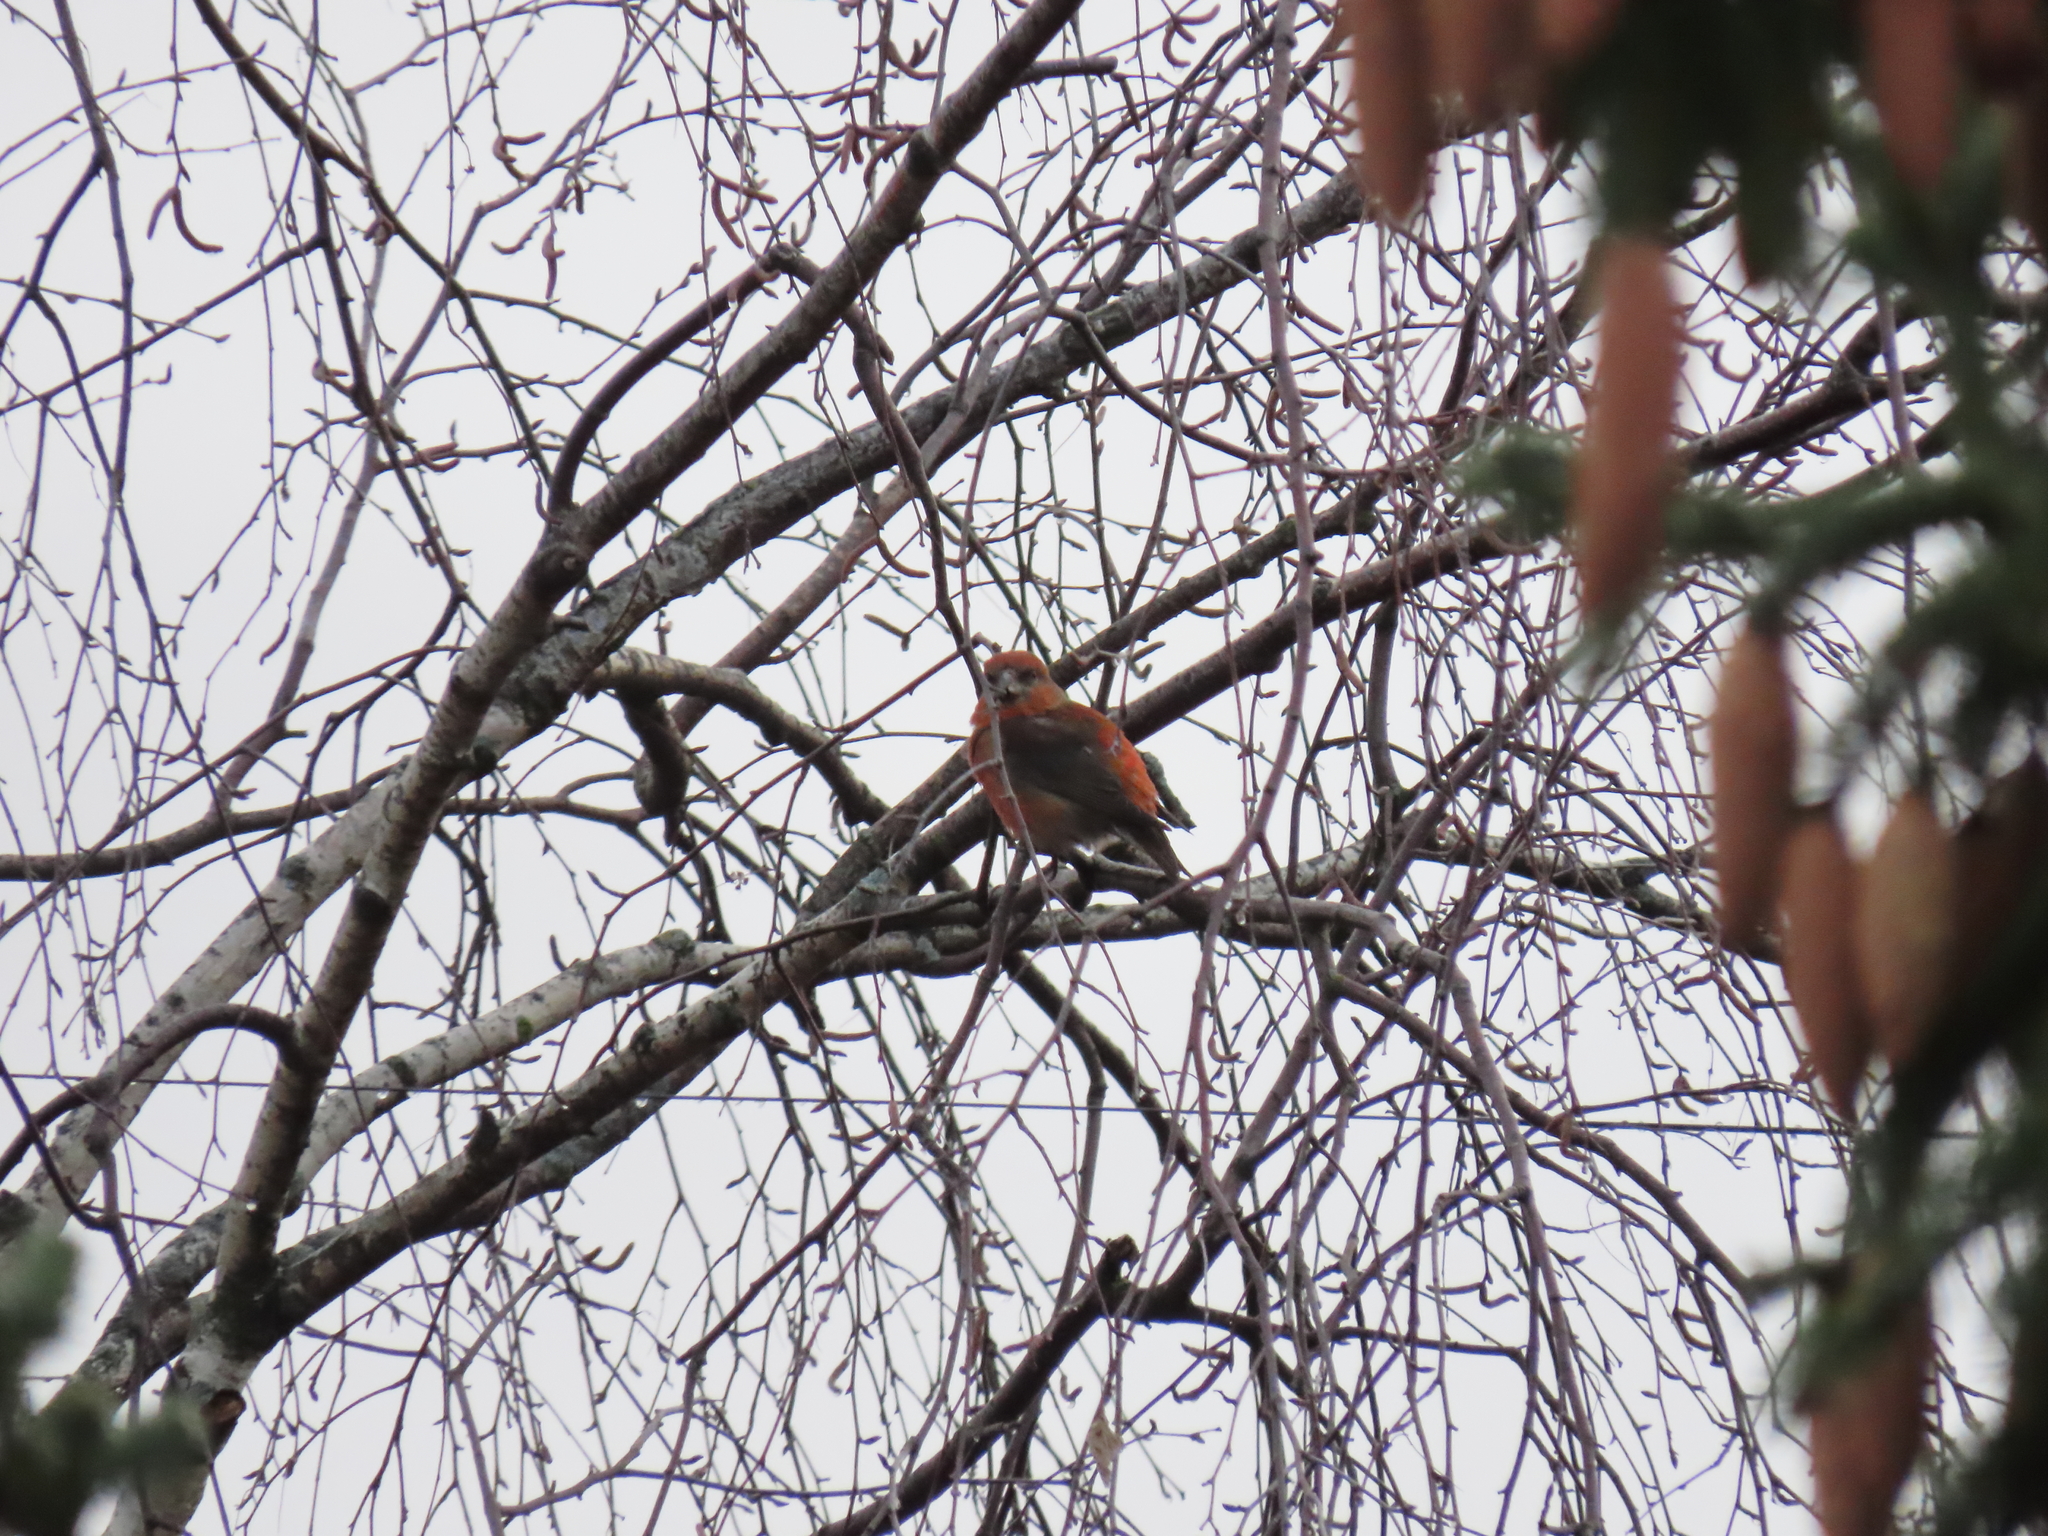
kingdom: Animalia
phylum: Chordata
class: Aves
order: Passeriformes
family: Fringillidae
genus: Loxia
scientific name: Loxia curvirostra
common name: Red crossbill
